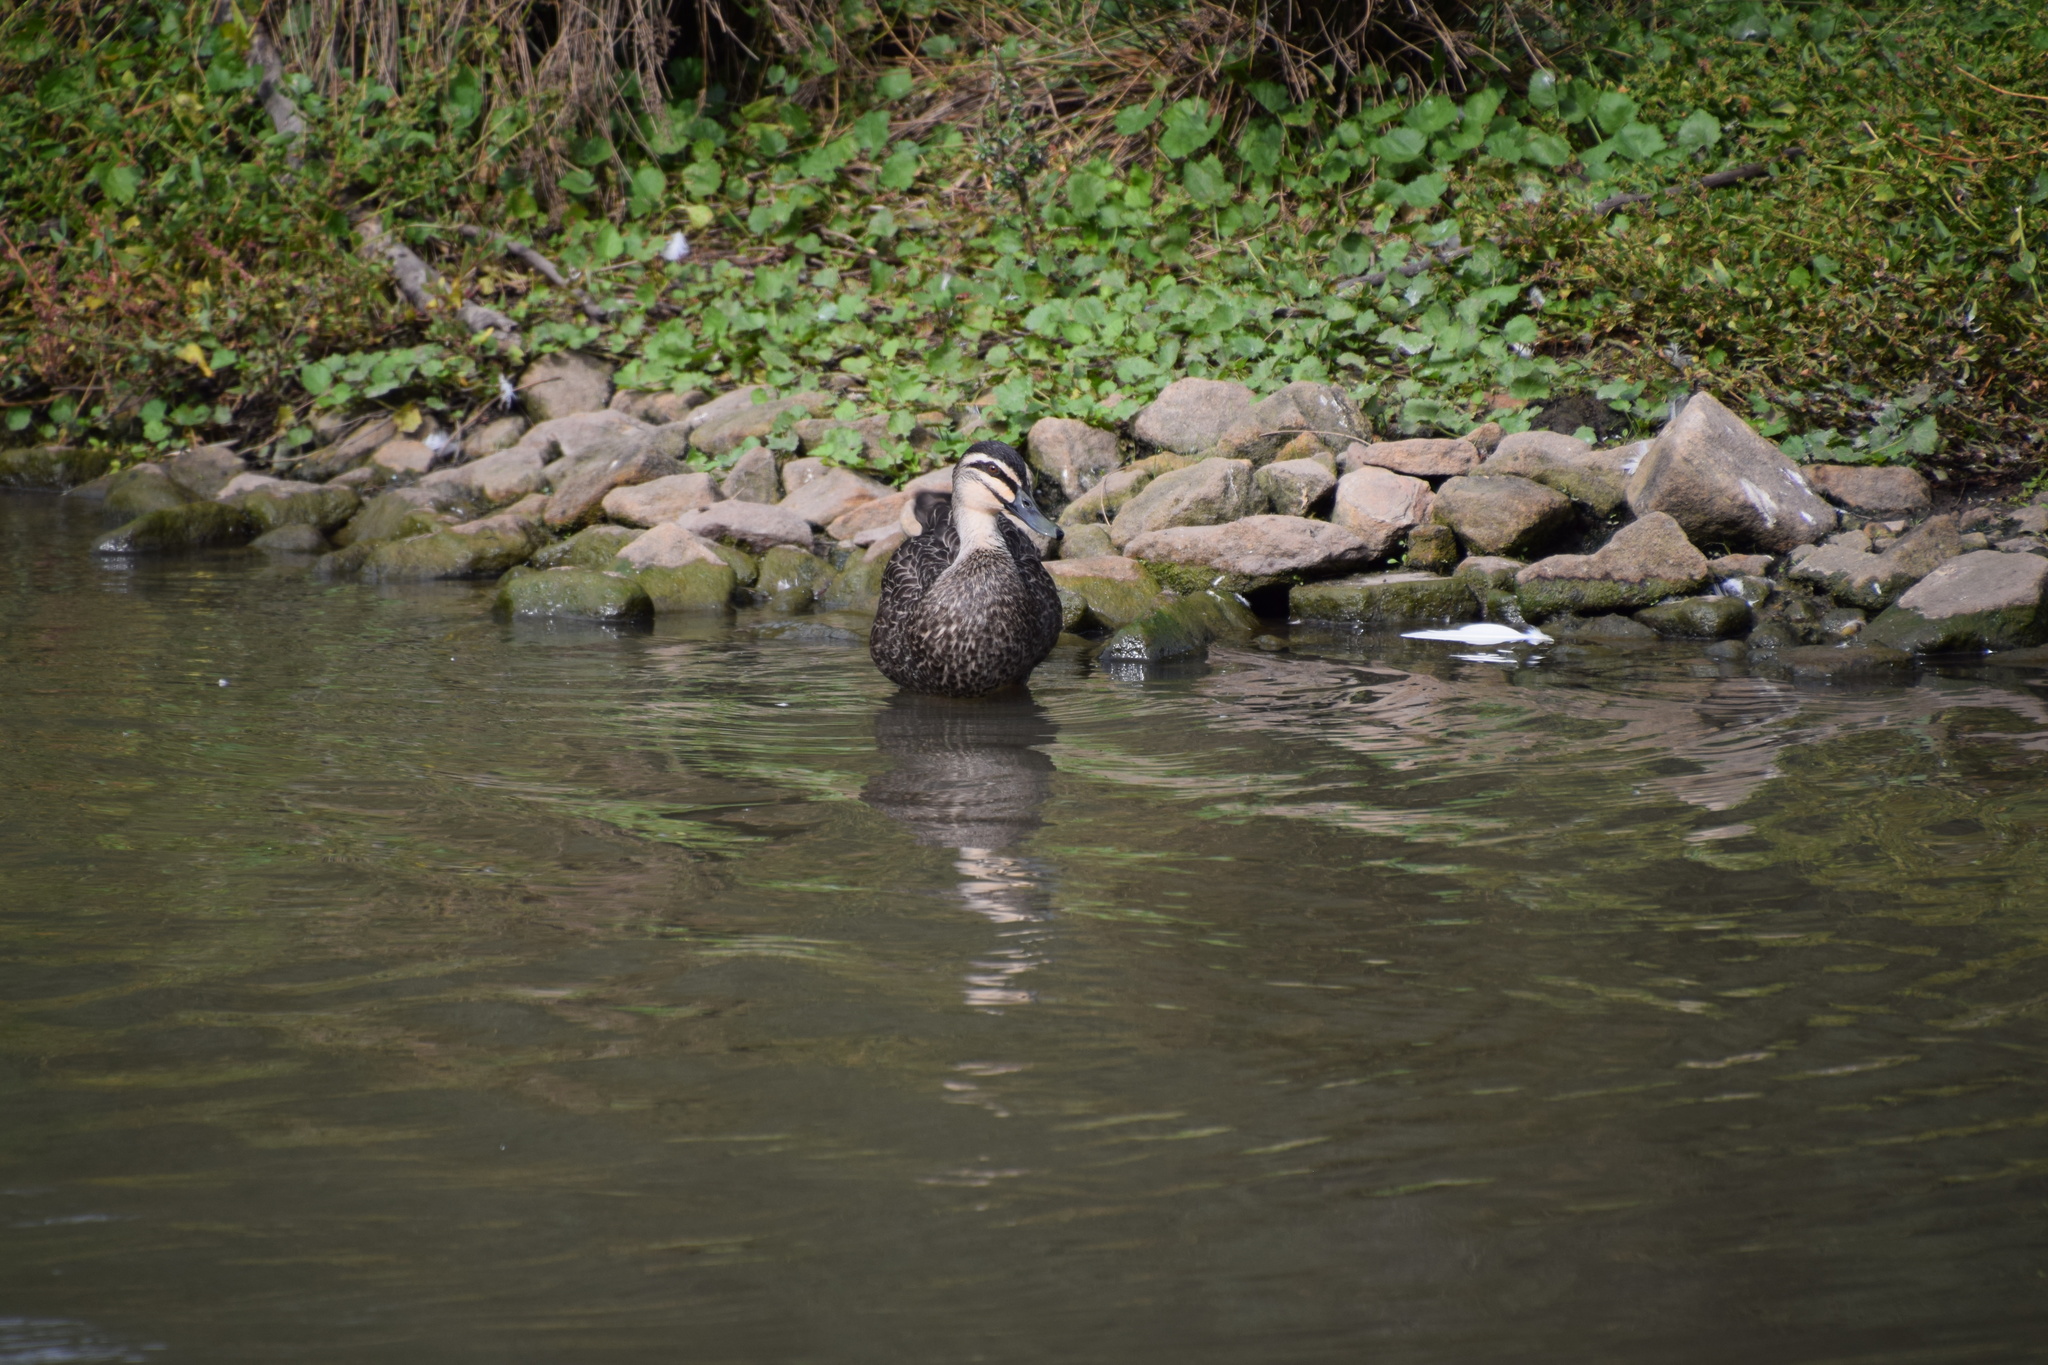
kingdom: Animalia
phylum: Chordata
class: Aves
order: Anseriformes
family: Anatidae
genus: Anas
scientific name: Anas superciliosa
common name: Pacific black duck
